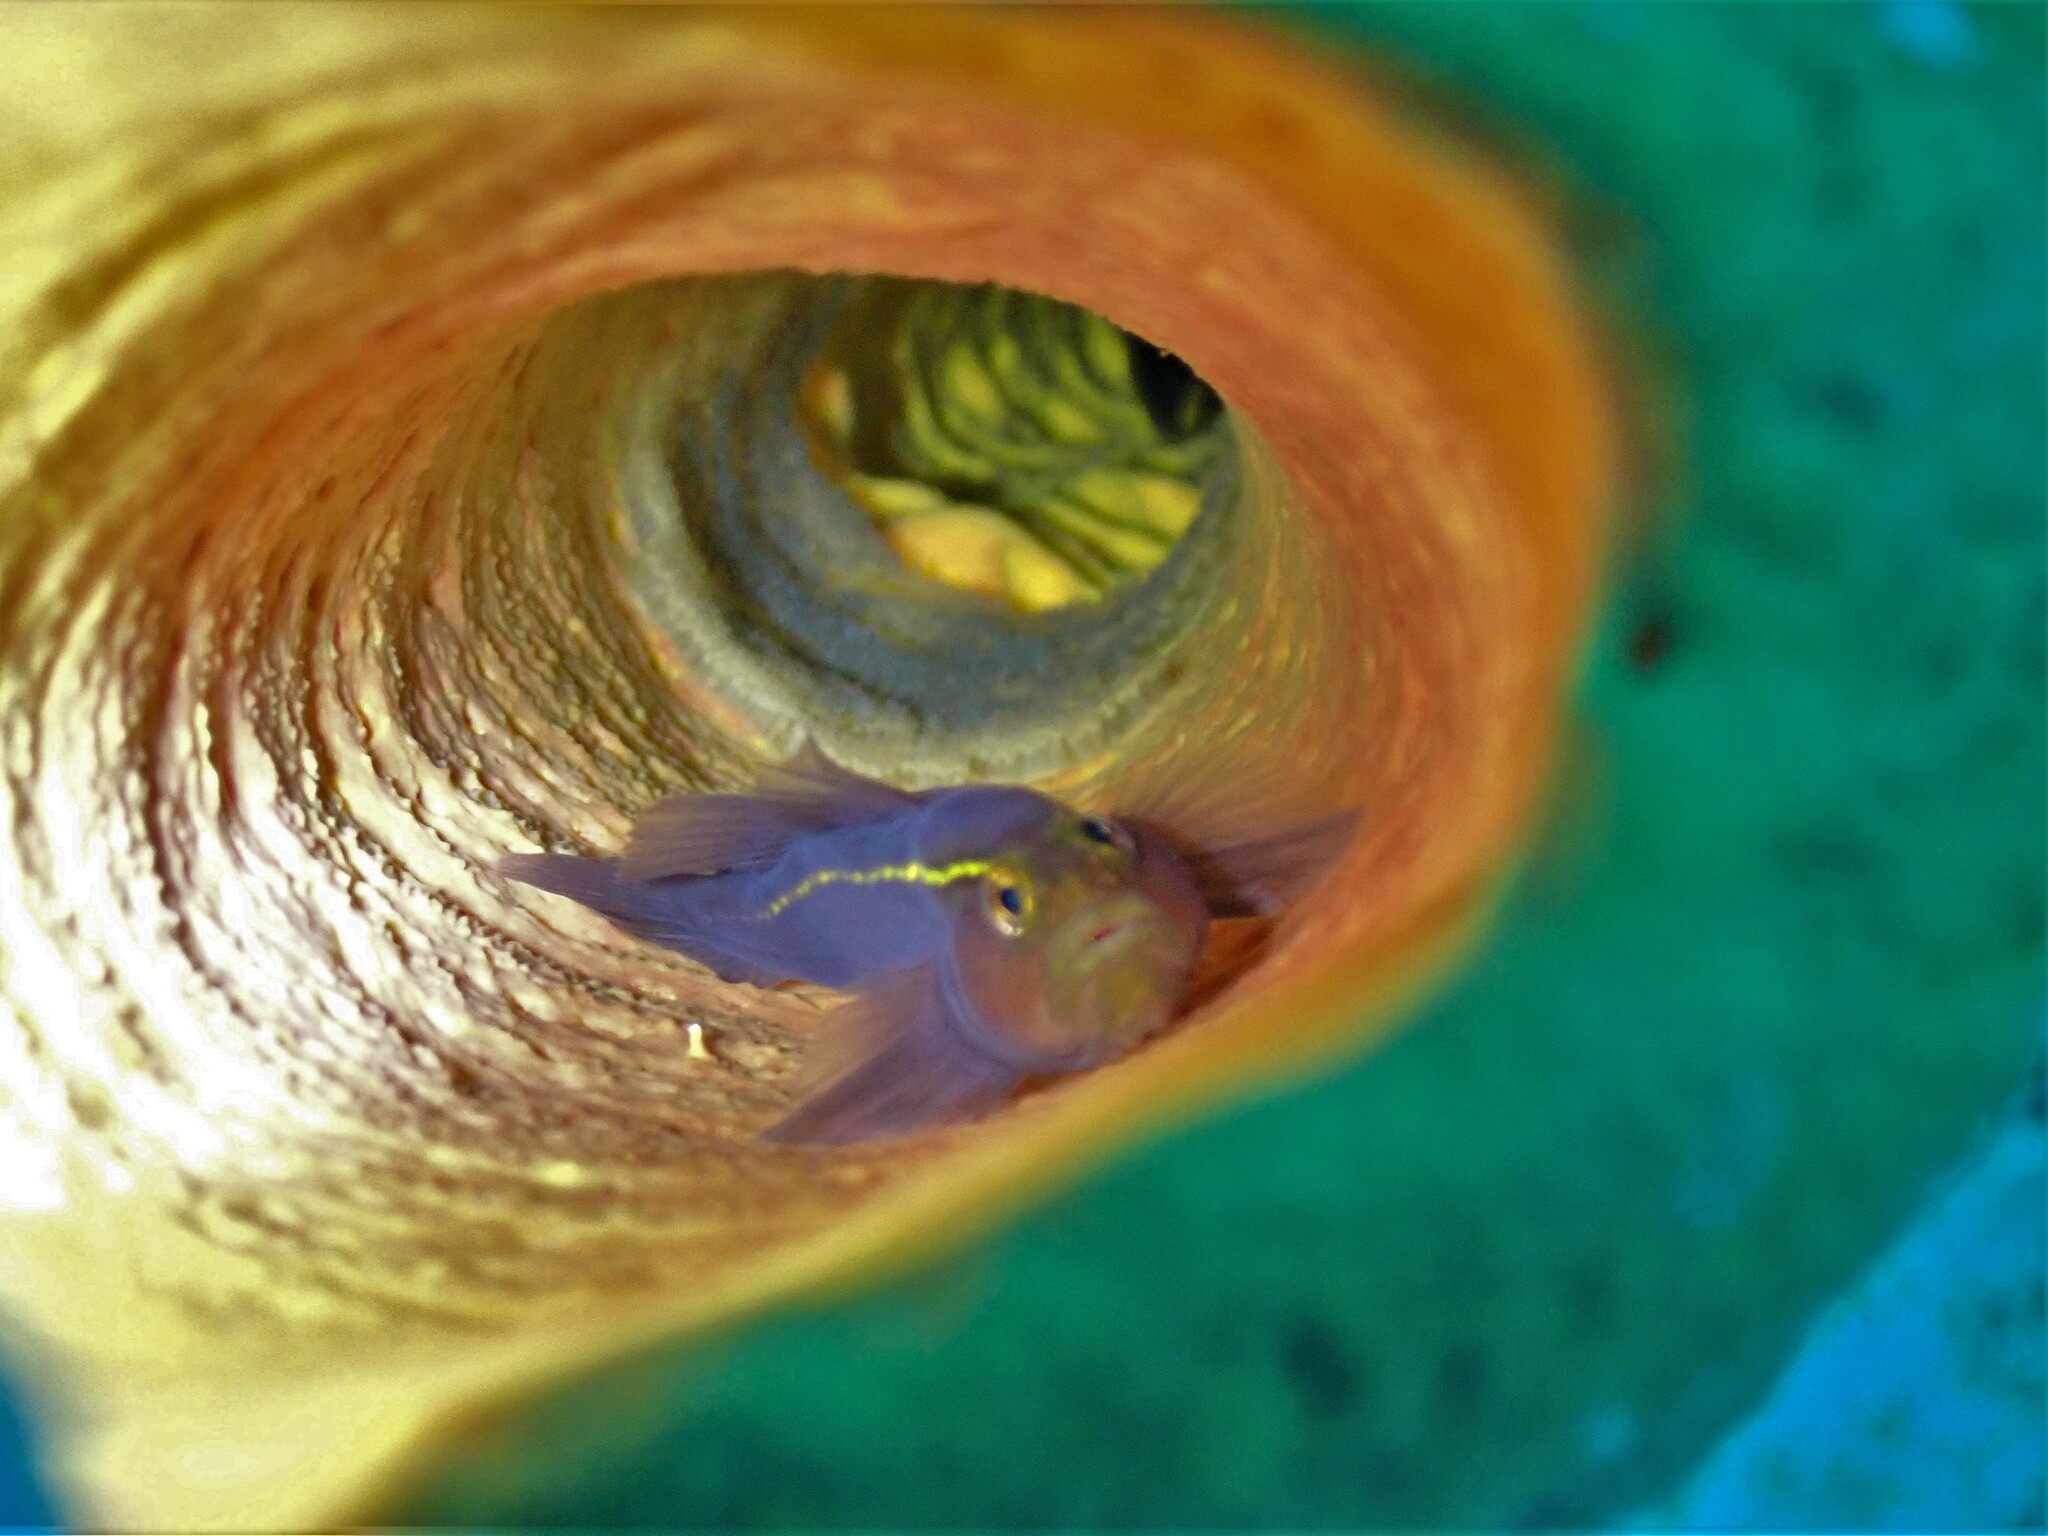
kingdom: Animalia
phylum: Chordata
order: Perciformes
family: Gobiidae
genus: Elacatinus
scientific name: Elacatinus horsti
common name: Yellowline goby
